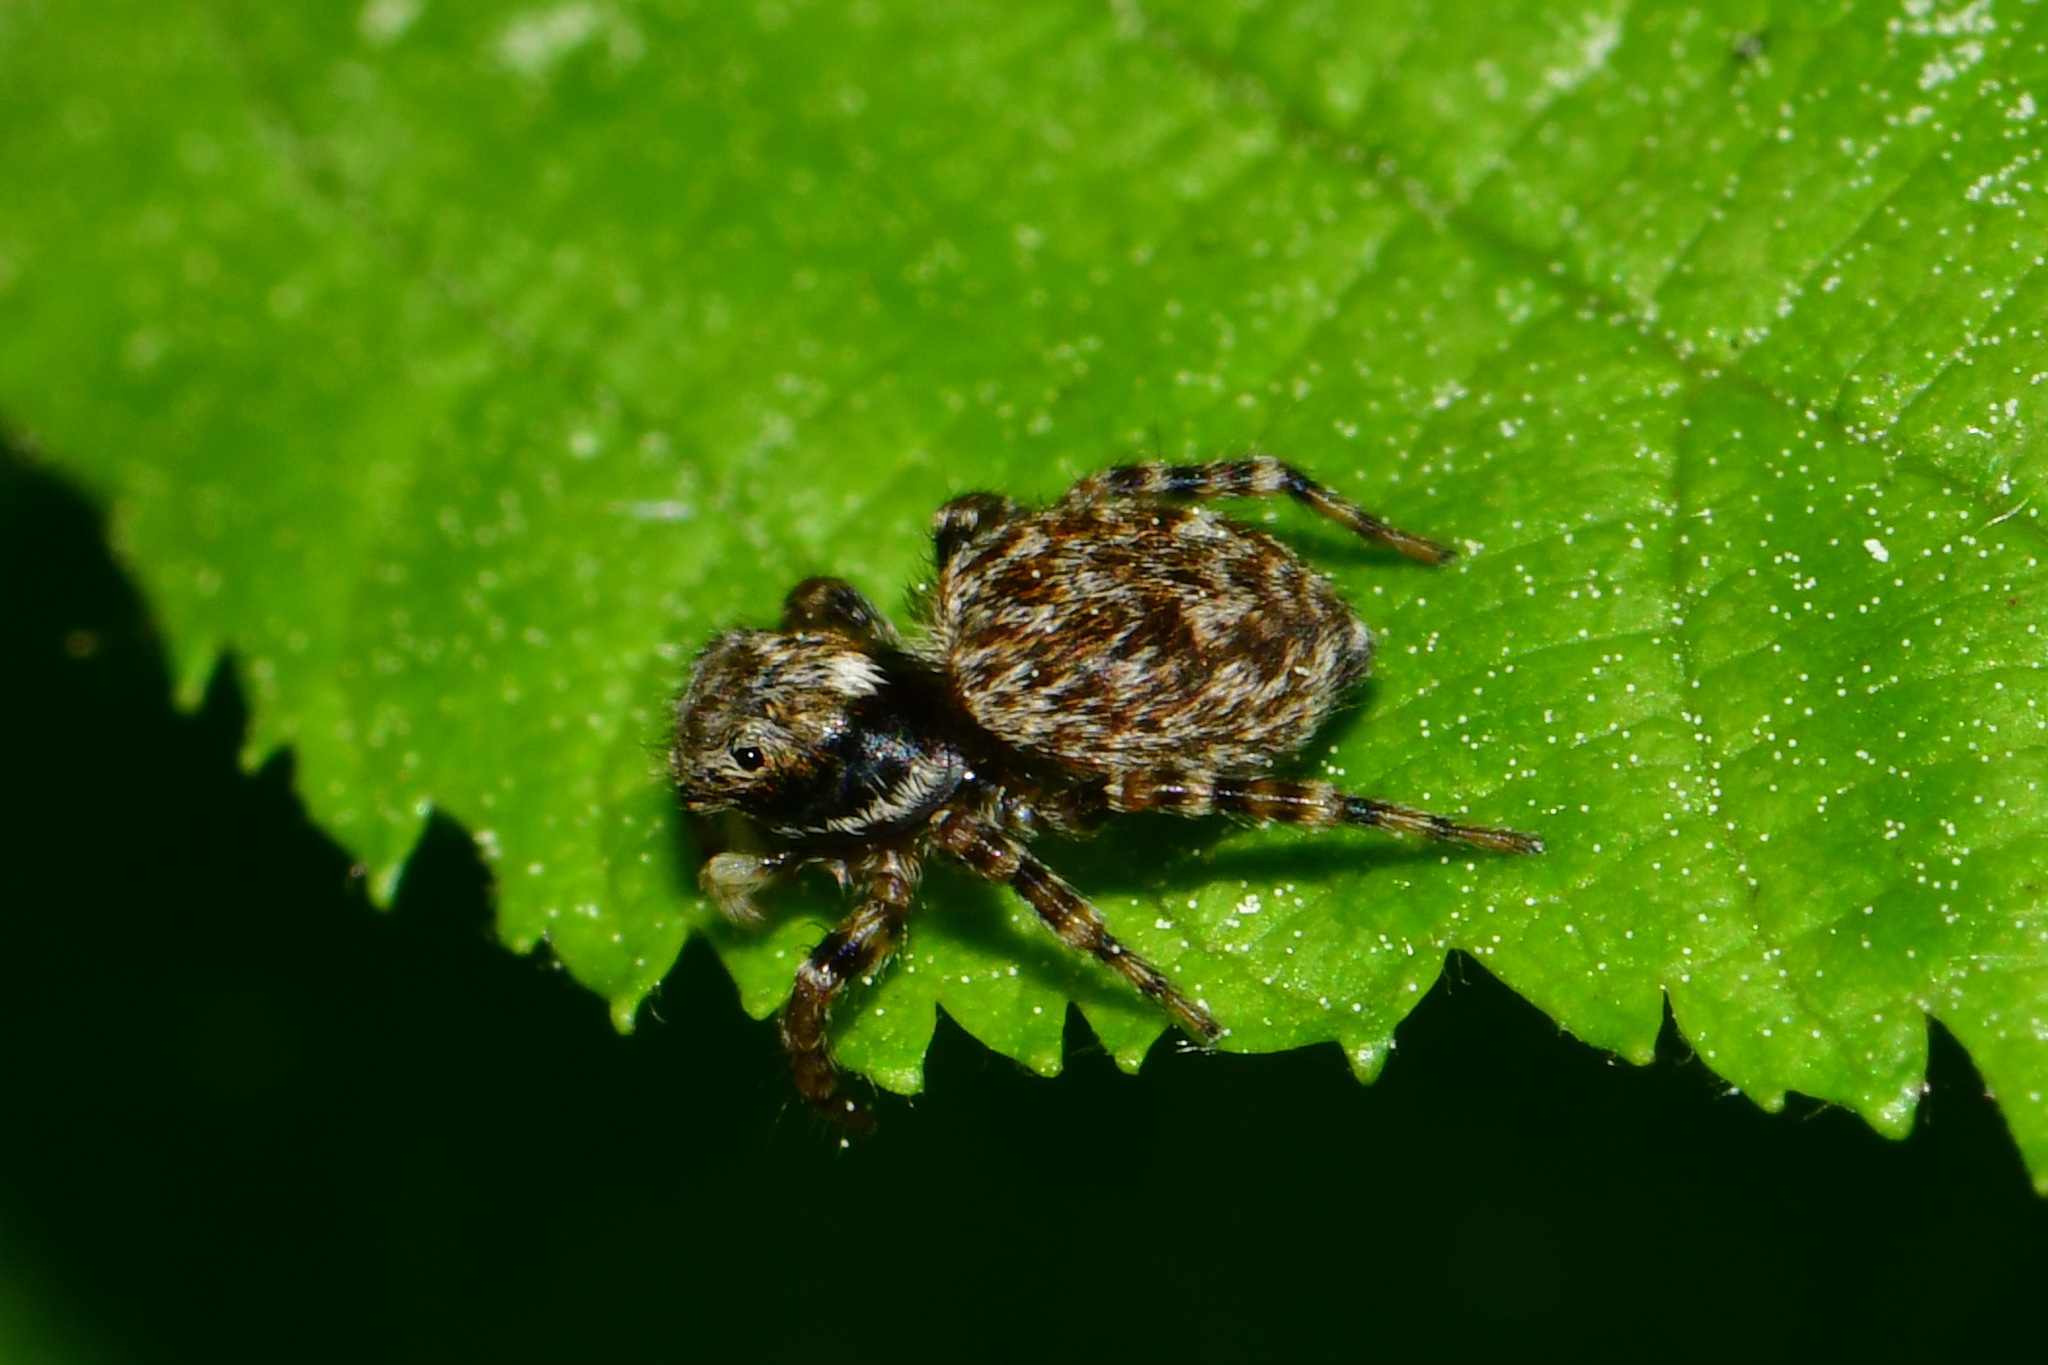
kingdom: Animalia
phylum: Arthropoda
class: Arachnida
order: Araneae
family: Salticidae
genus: Pseudeuophrys
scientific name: Pseudeuophrys erratica
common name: Jumping spider
